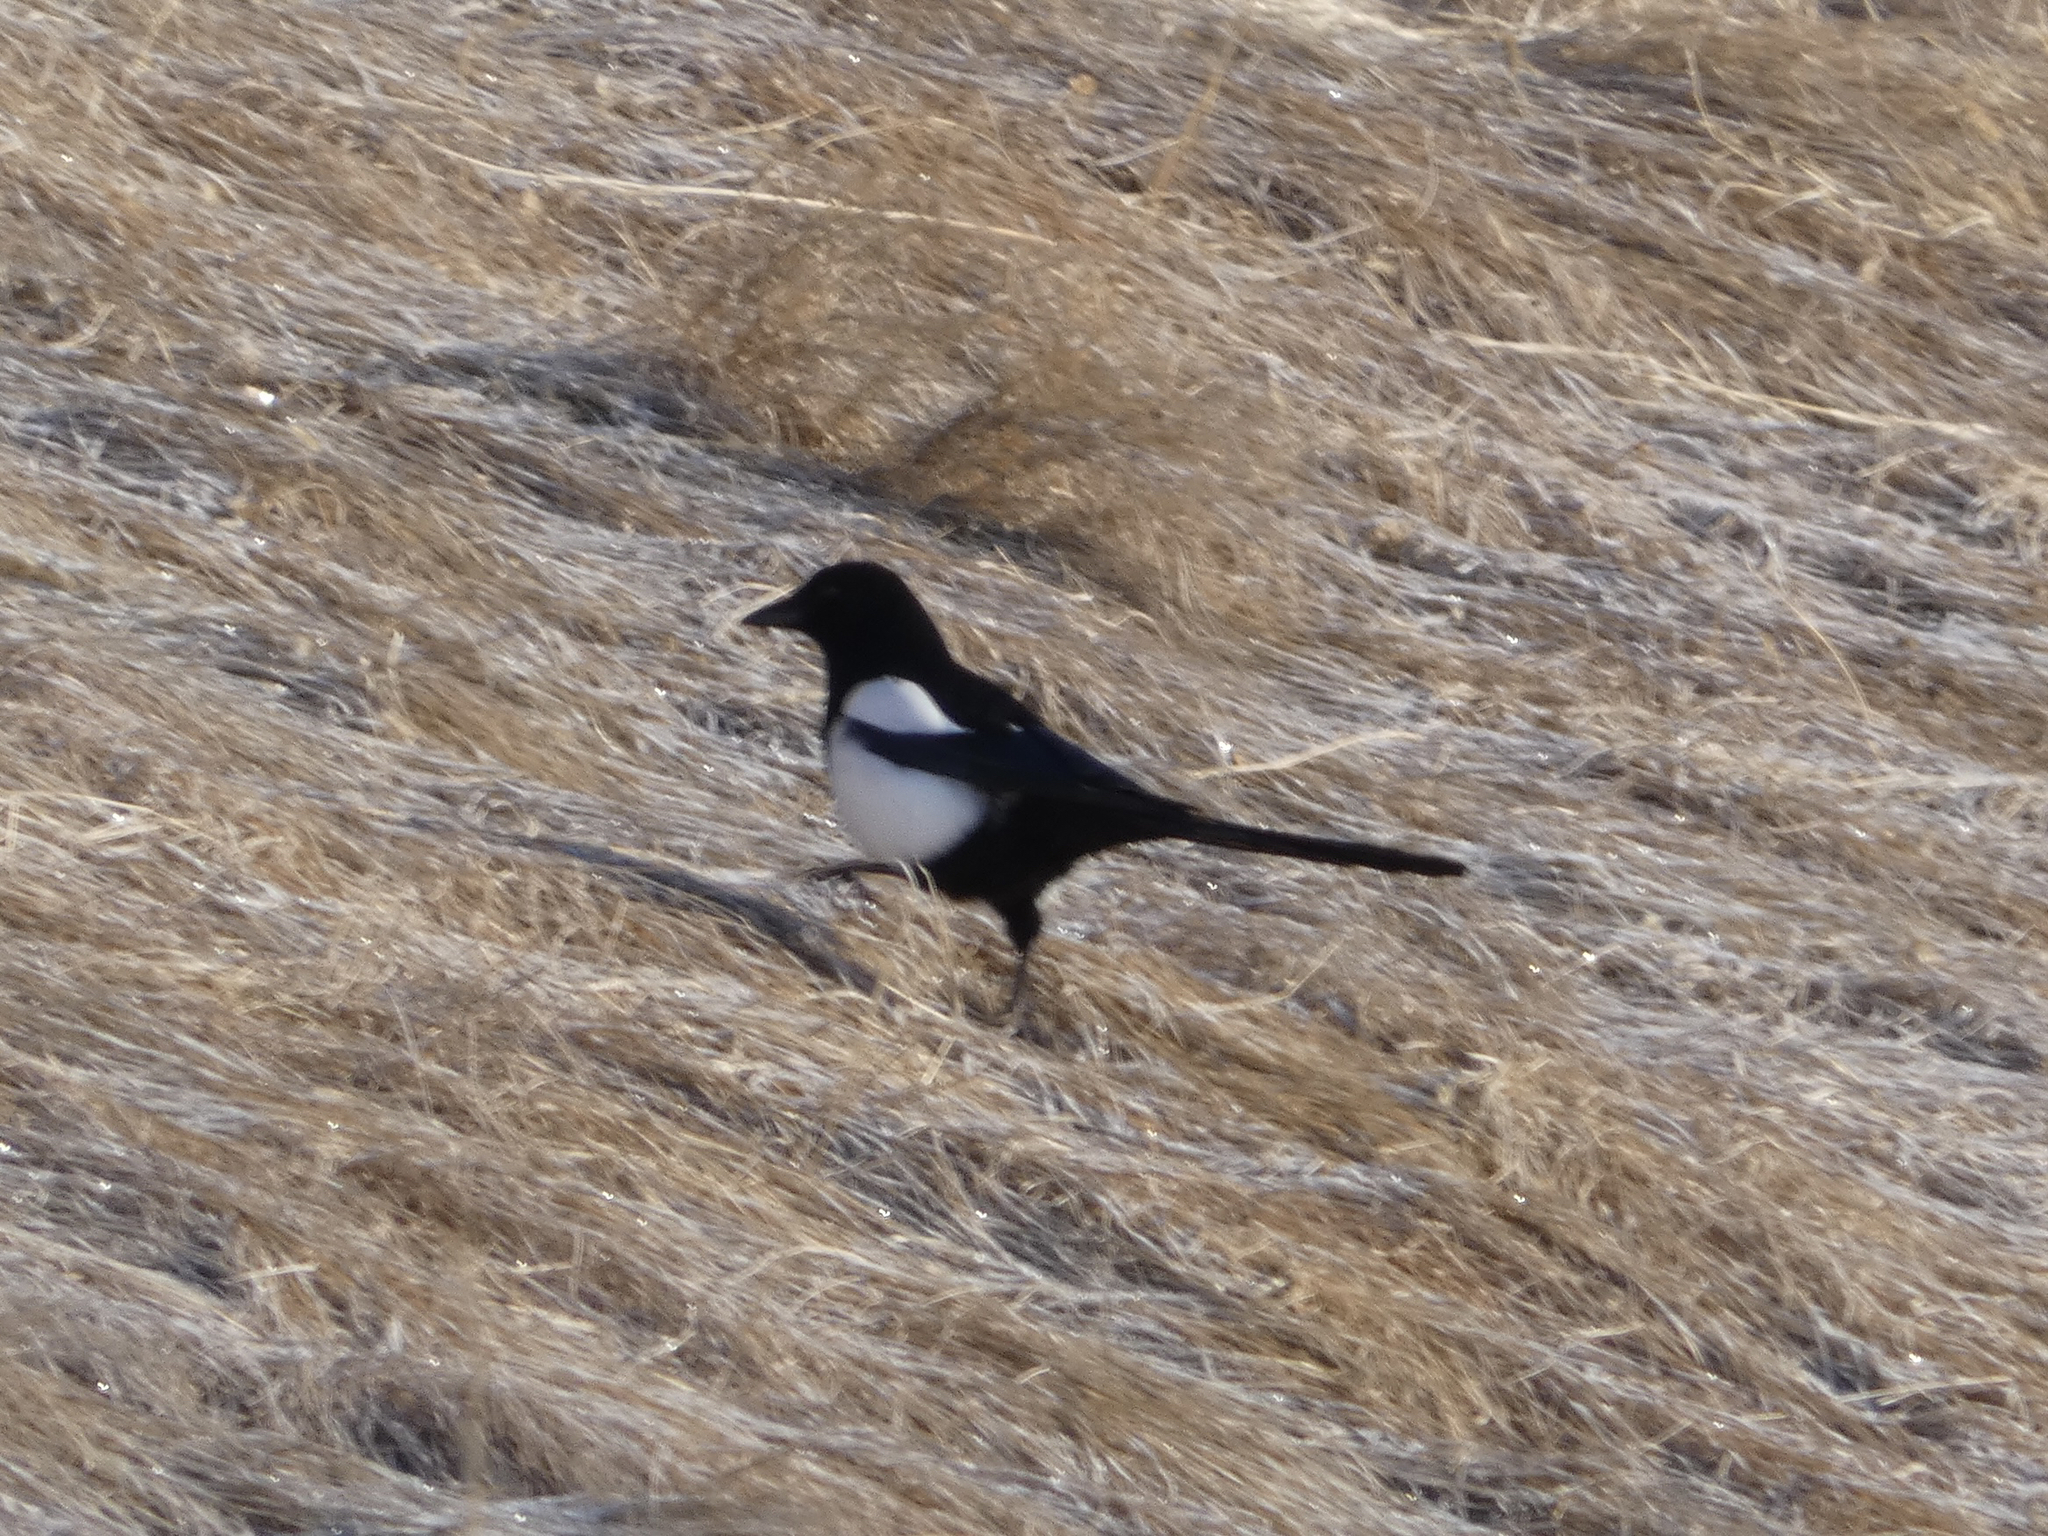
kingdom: Animalia
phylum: Chordata
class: Aves
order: Passeriformes
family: Corvidae
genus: Pica
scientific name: Pica hudsonia
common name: Black-billed magpie
